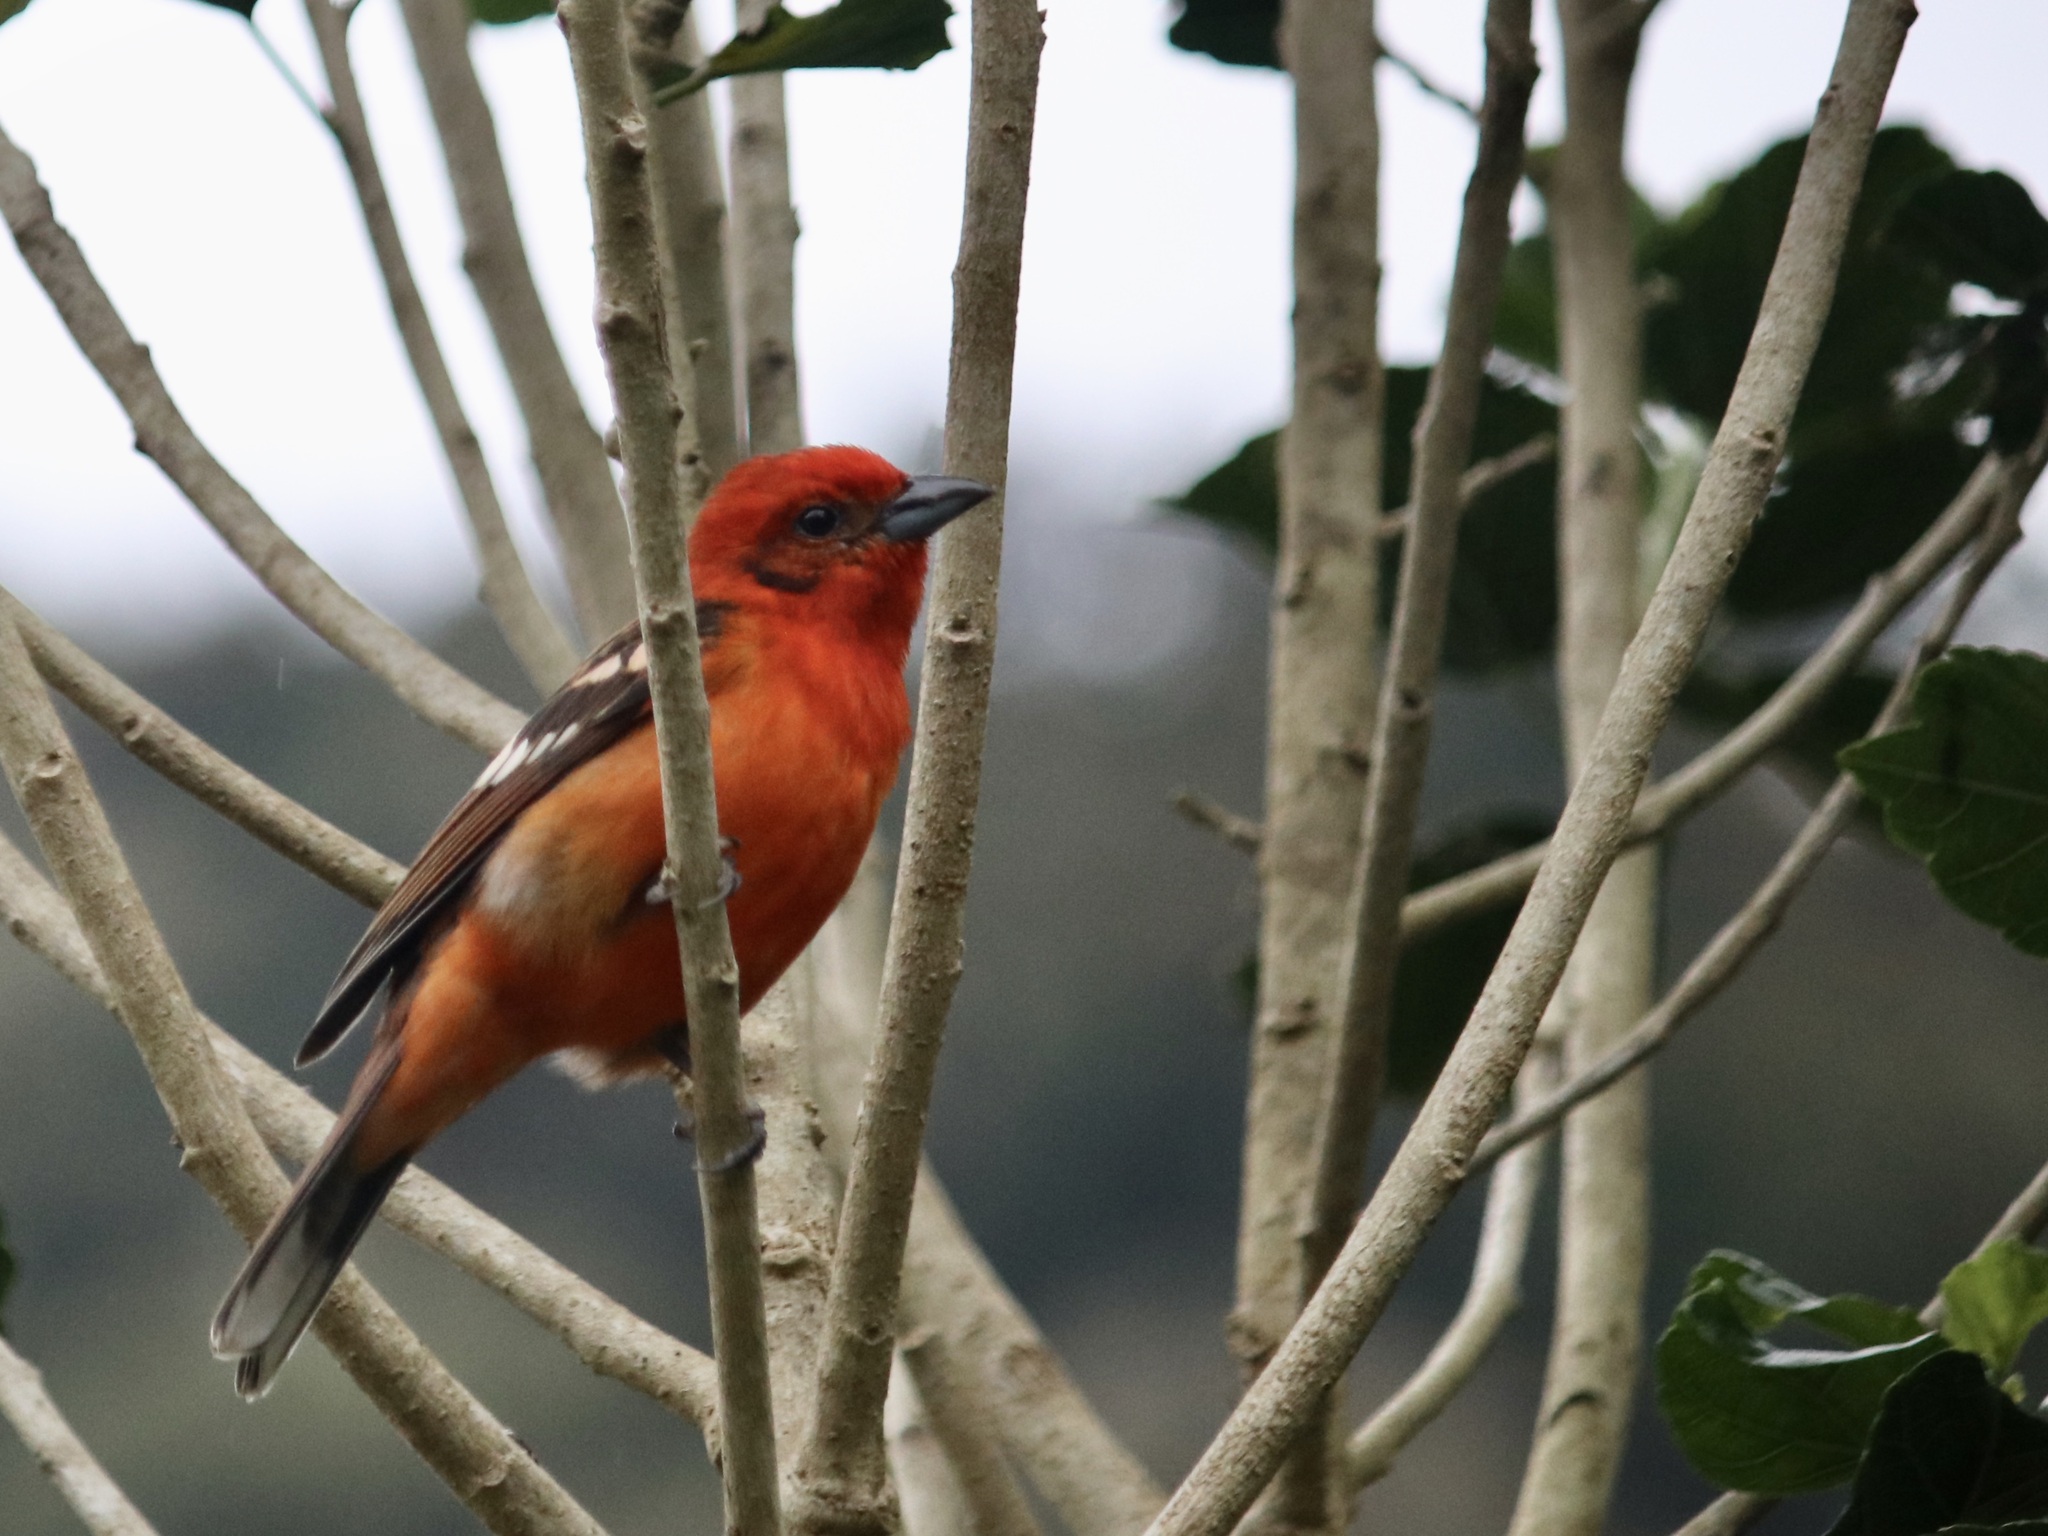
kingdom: Animalia
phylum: Chordata
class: Aves
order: Passeriformes
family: Cardinalidae
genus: Piranga
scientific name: Piranga bidentata
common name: Flame-colored tanager
